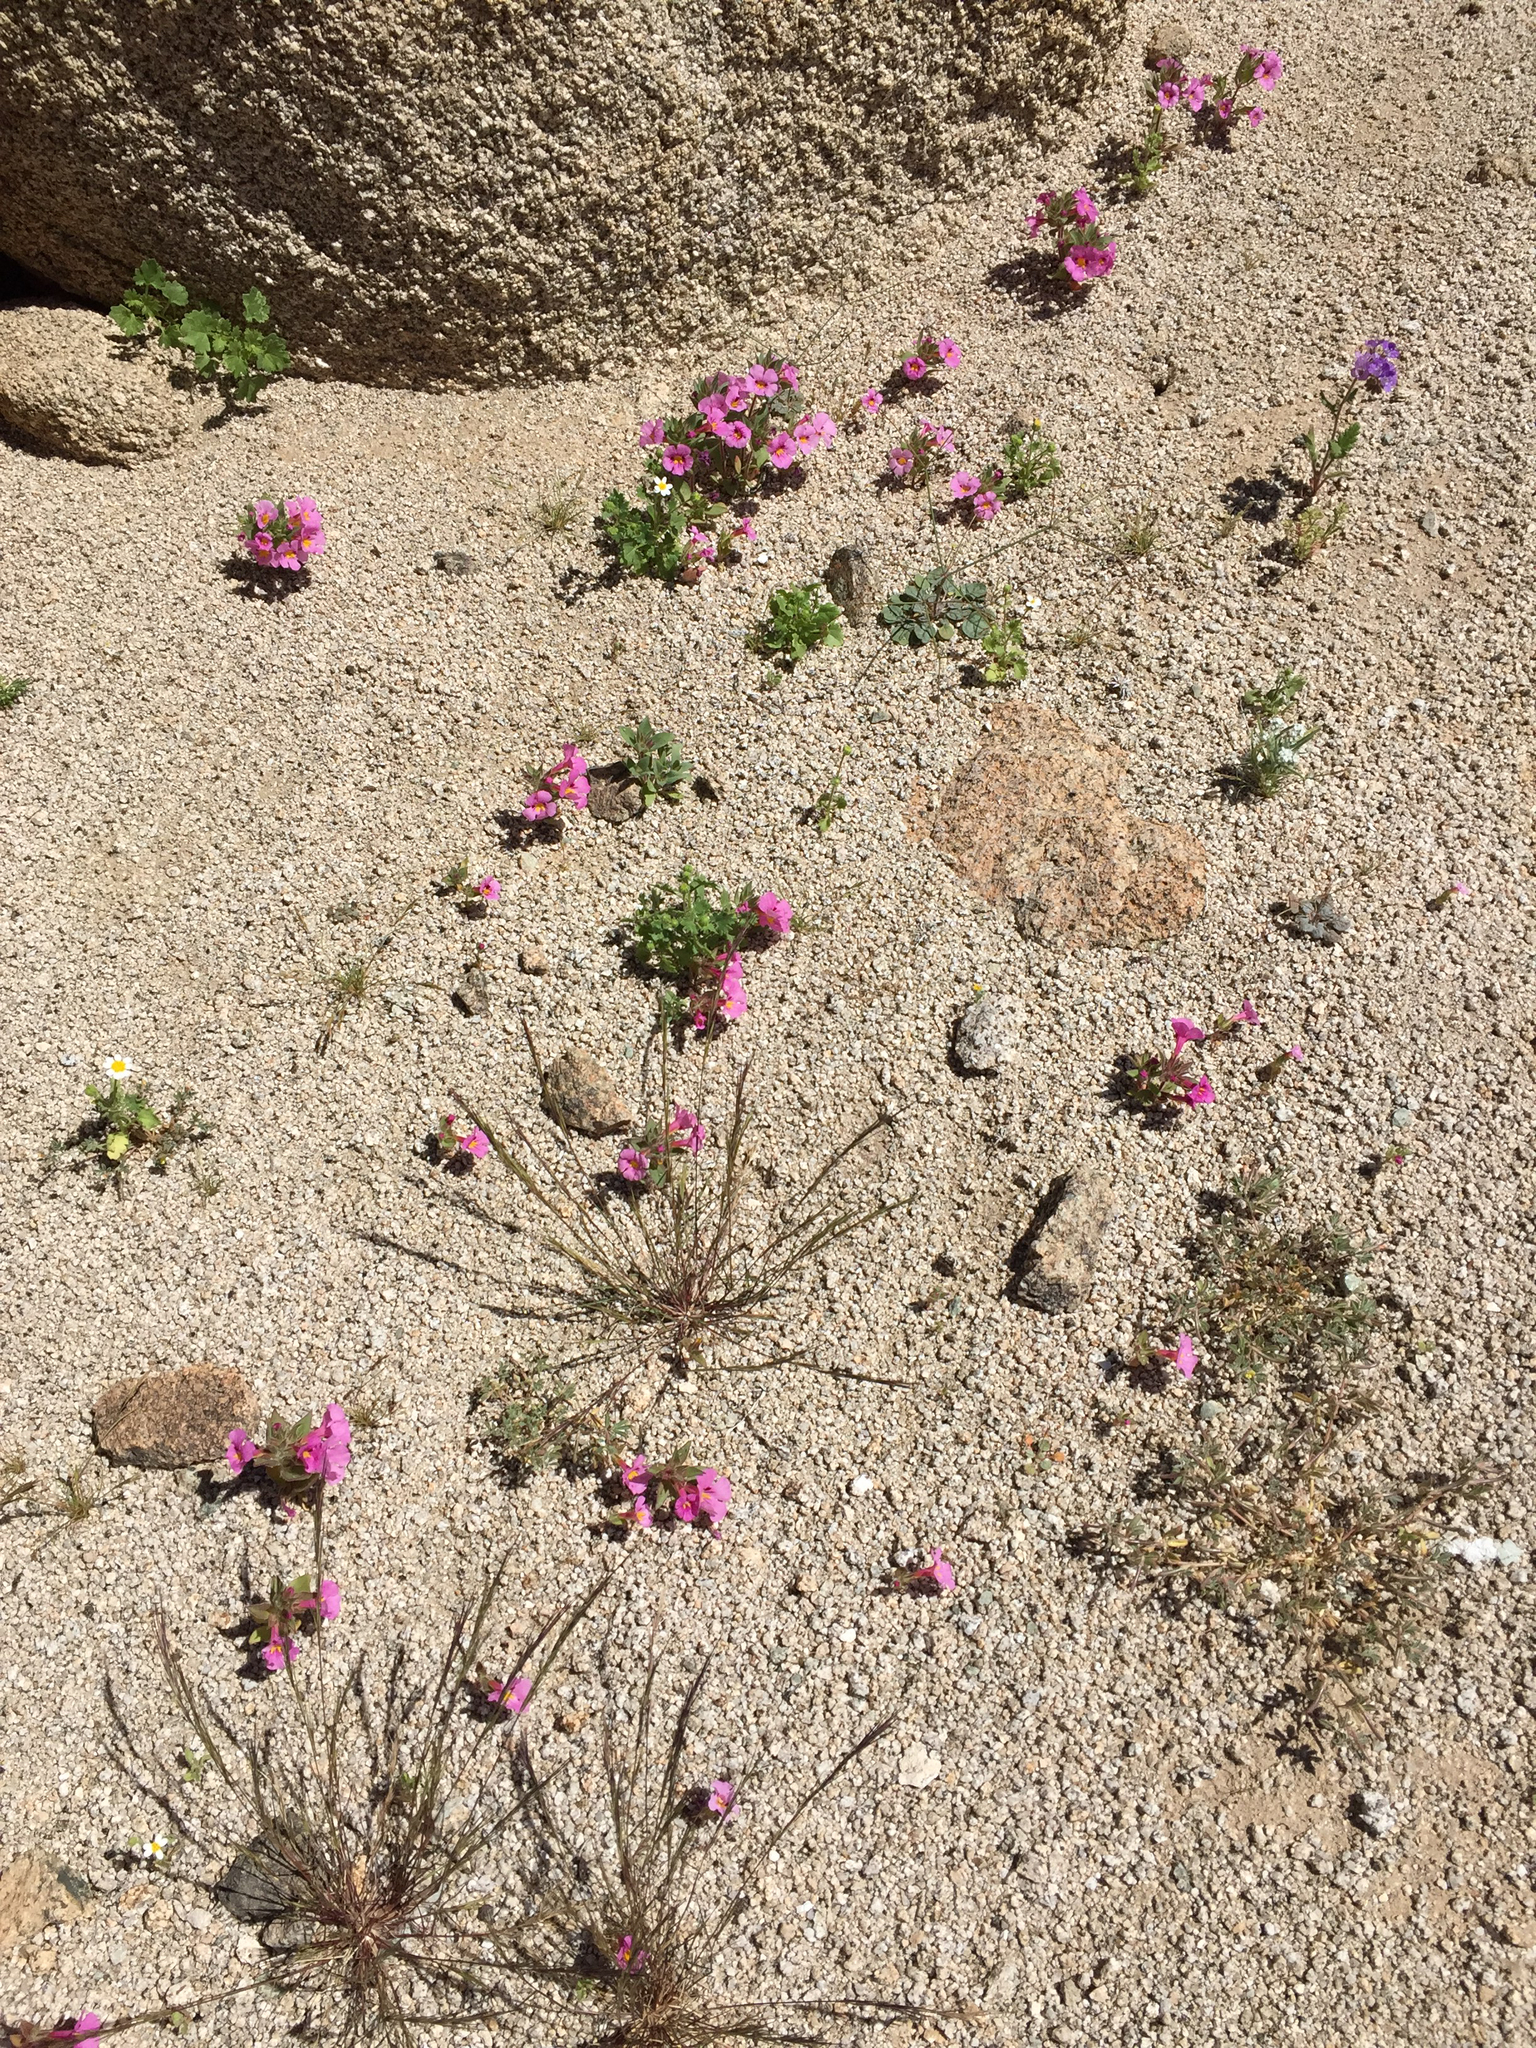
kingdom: Plantae
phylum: Tracheophyta
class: Magnoliopsida
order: Lamiales
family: Phrymaceae
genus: Diplacus
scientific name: Diplacus bigelovii
